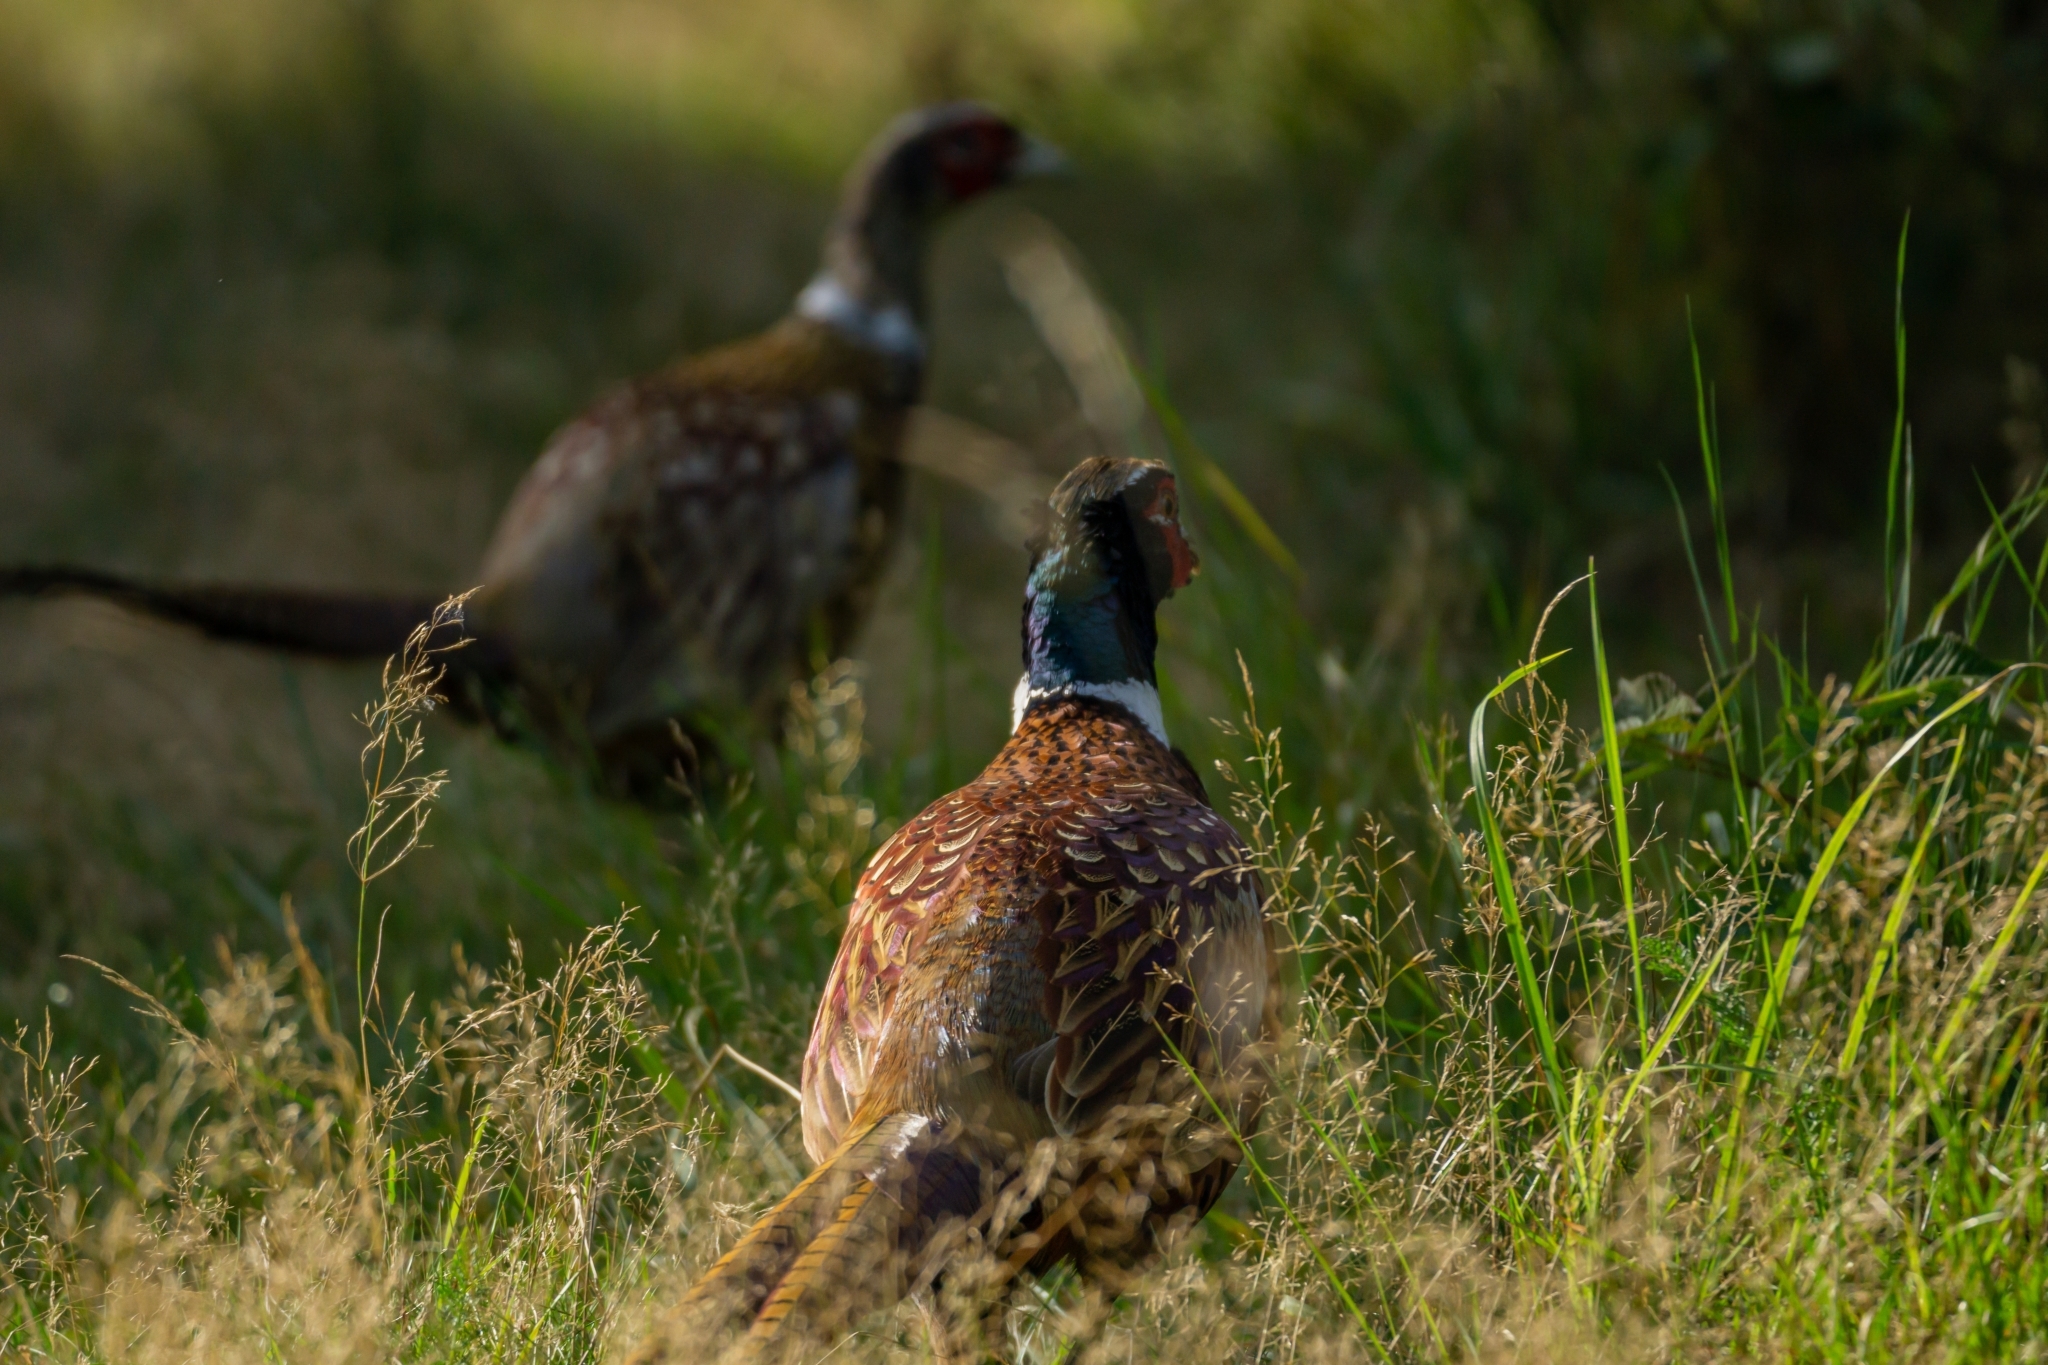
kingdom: Animalia
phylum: Chordata
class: Aves
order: Galliformes
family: Phasianidae
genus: Phasianus
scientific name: Phasianus colchicus
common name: Common pheasant
